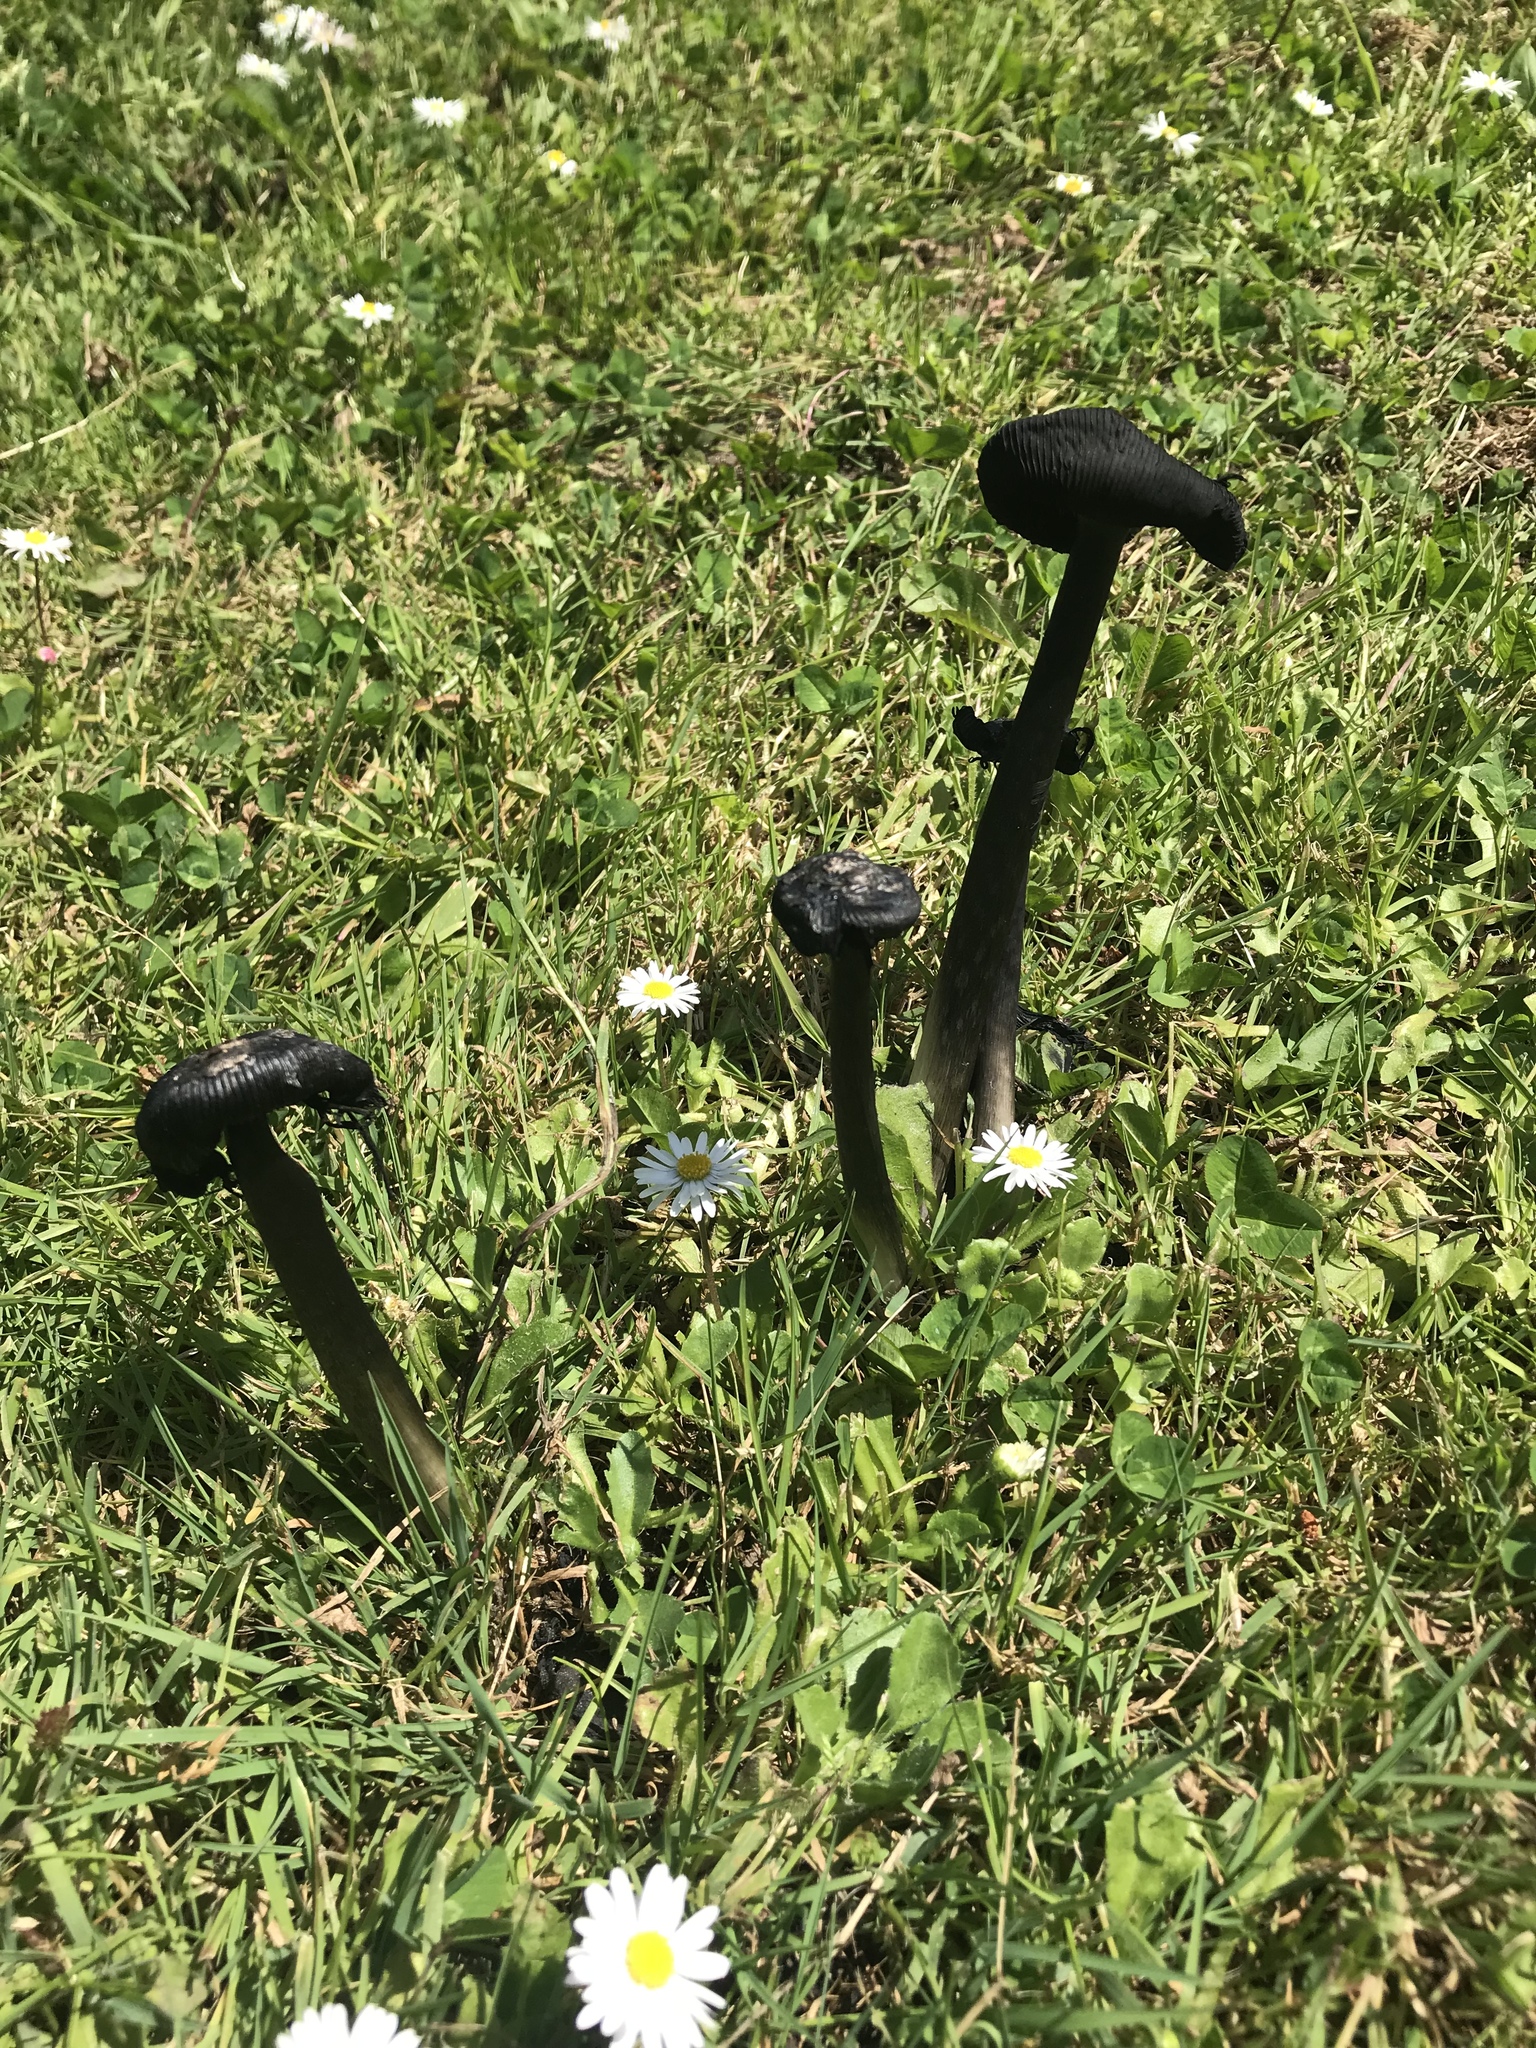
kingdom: Fungi
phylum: Basidiomycota
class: Agaricomycetes
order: Agaricales
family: Agaricaceae
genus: Coprinus
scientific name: Coprinus calyptratus
